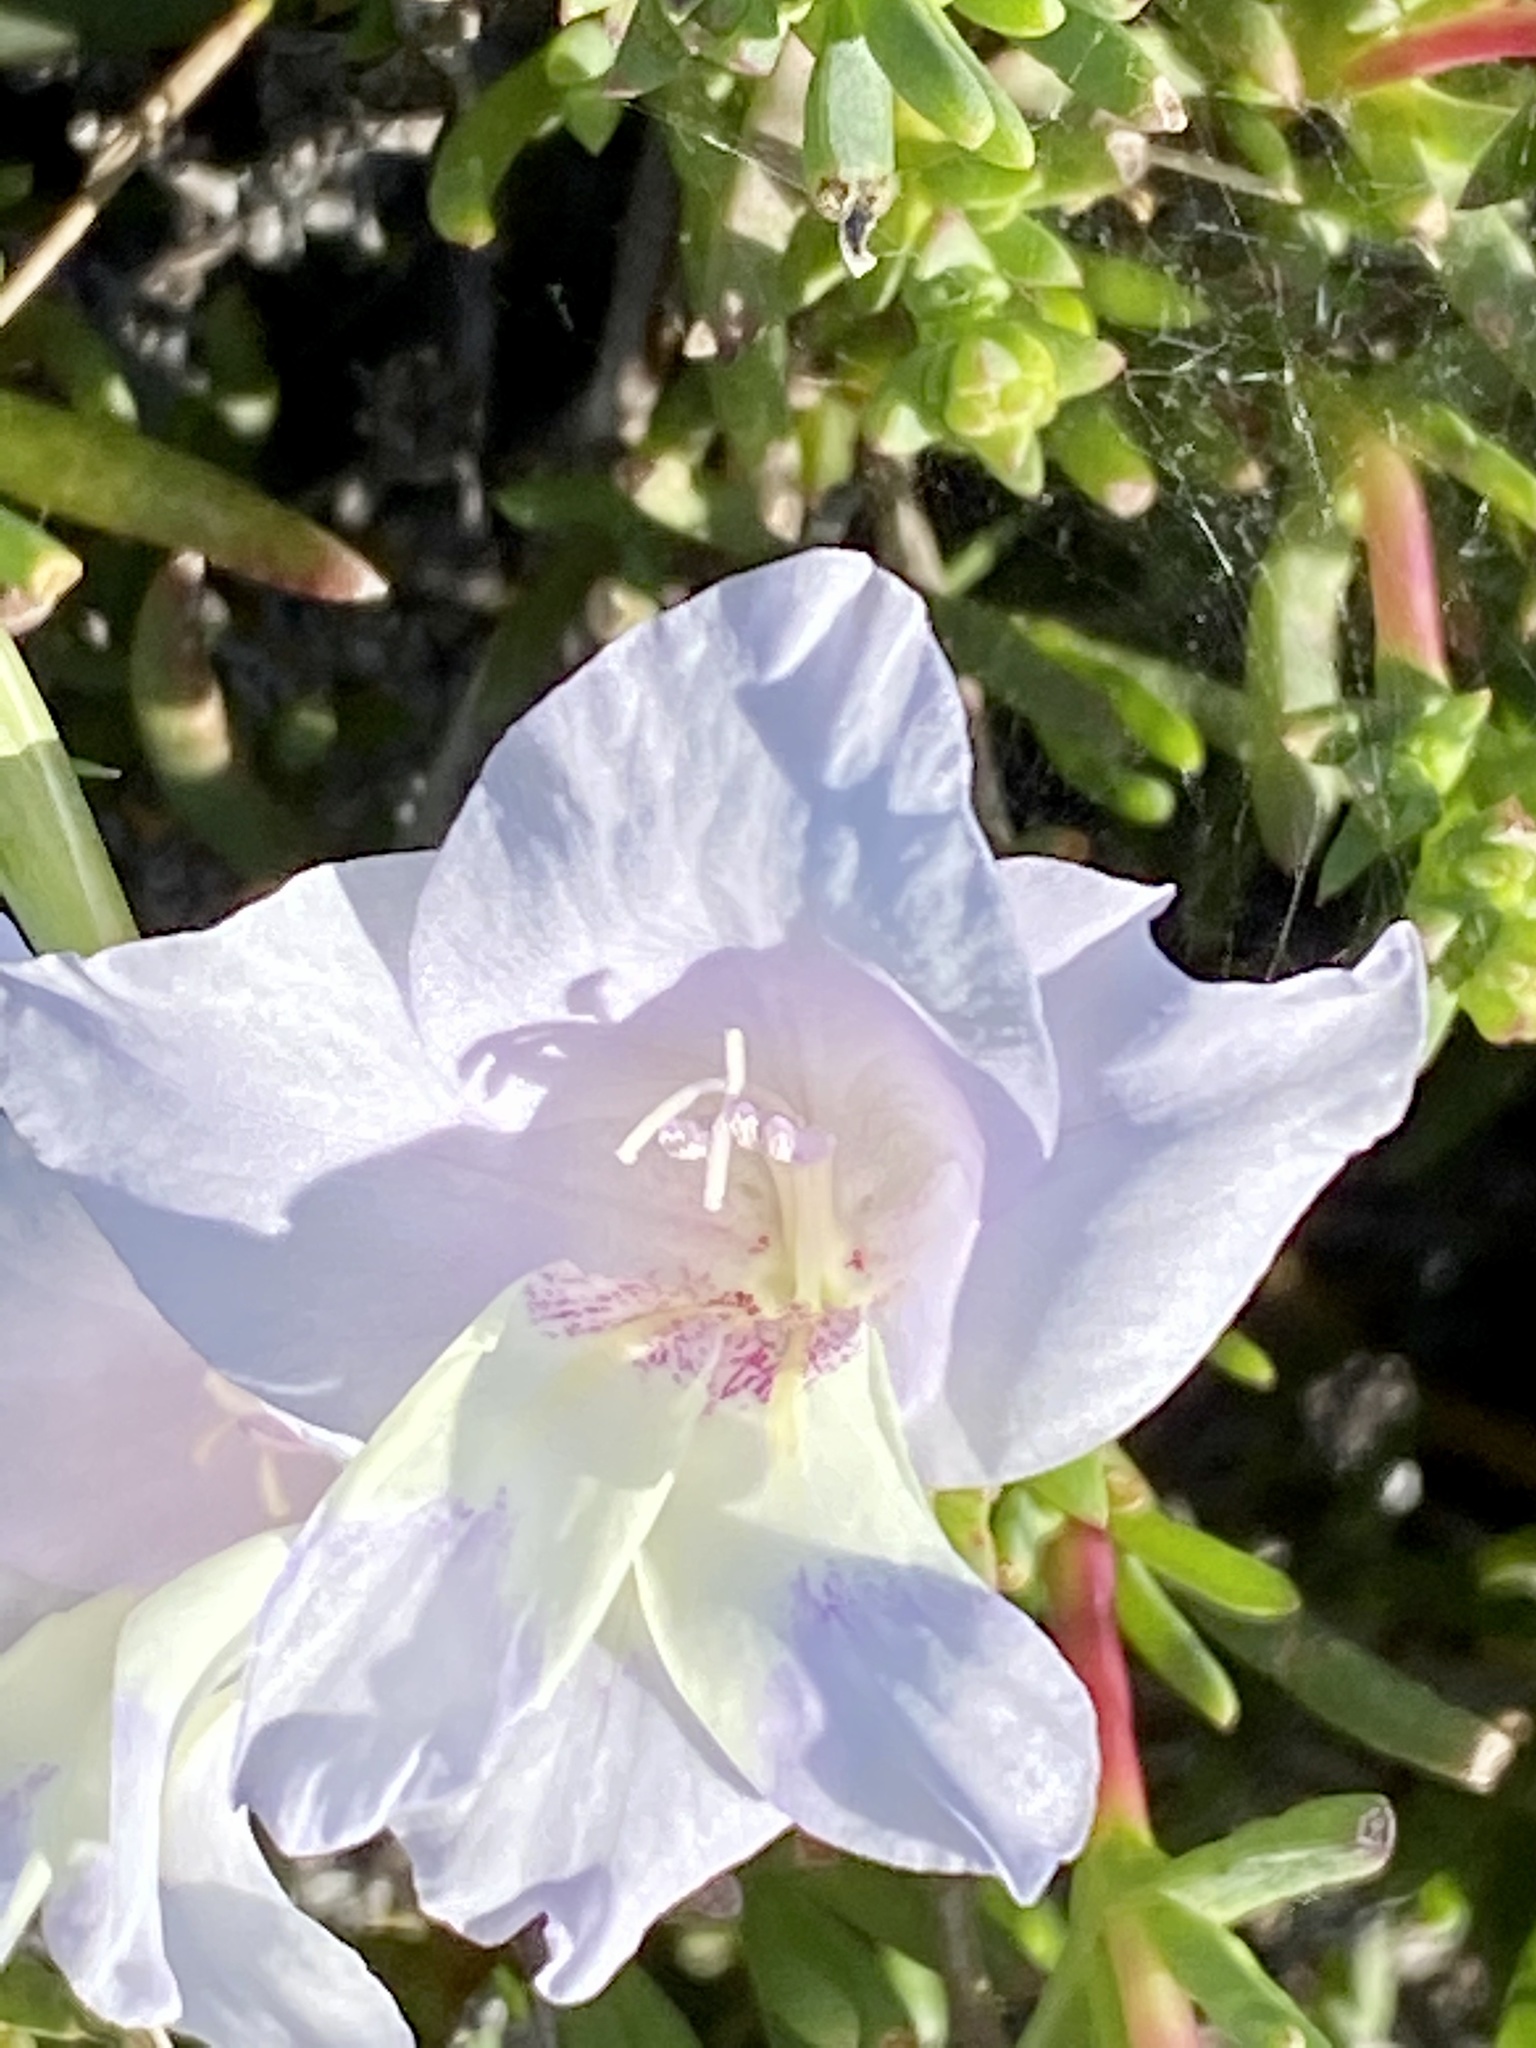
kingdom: Plantae
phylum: Tracheophyta
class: Liliopsida
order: Asparagales
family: Iridaceae
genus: Gladiolus
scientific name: Gladiolus carinatus
